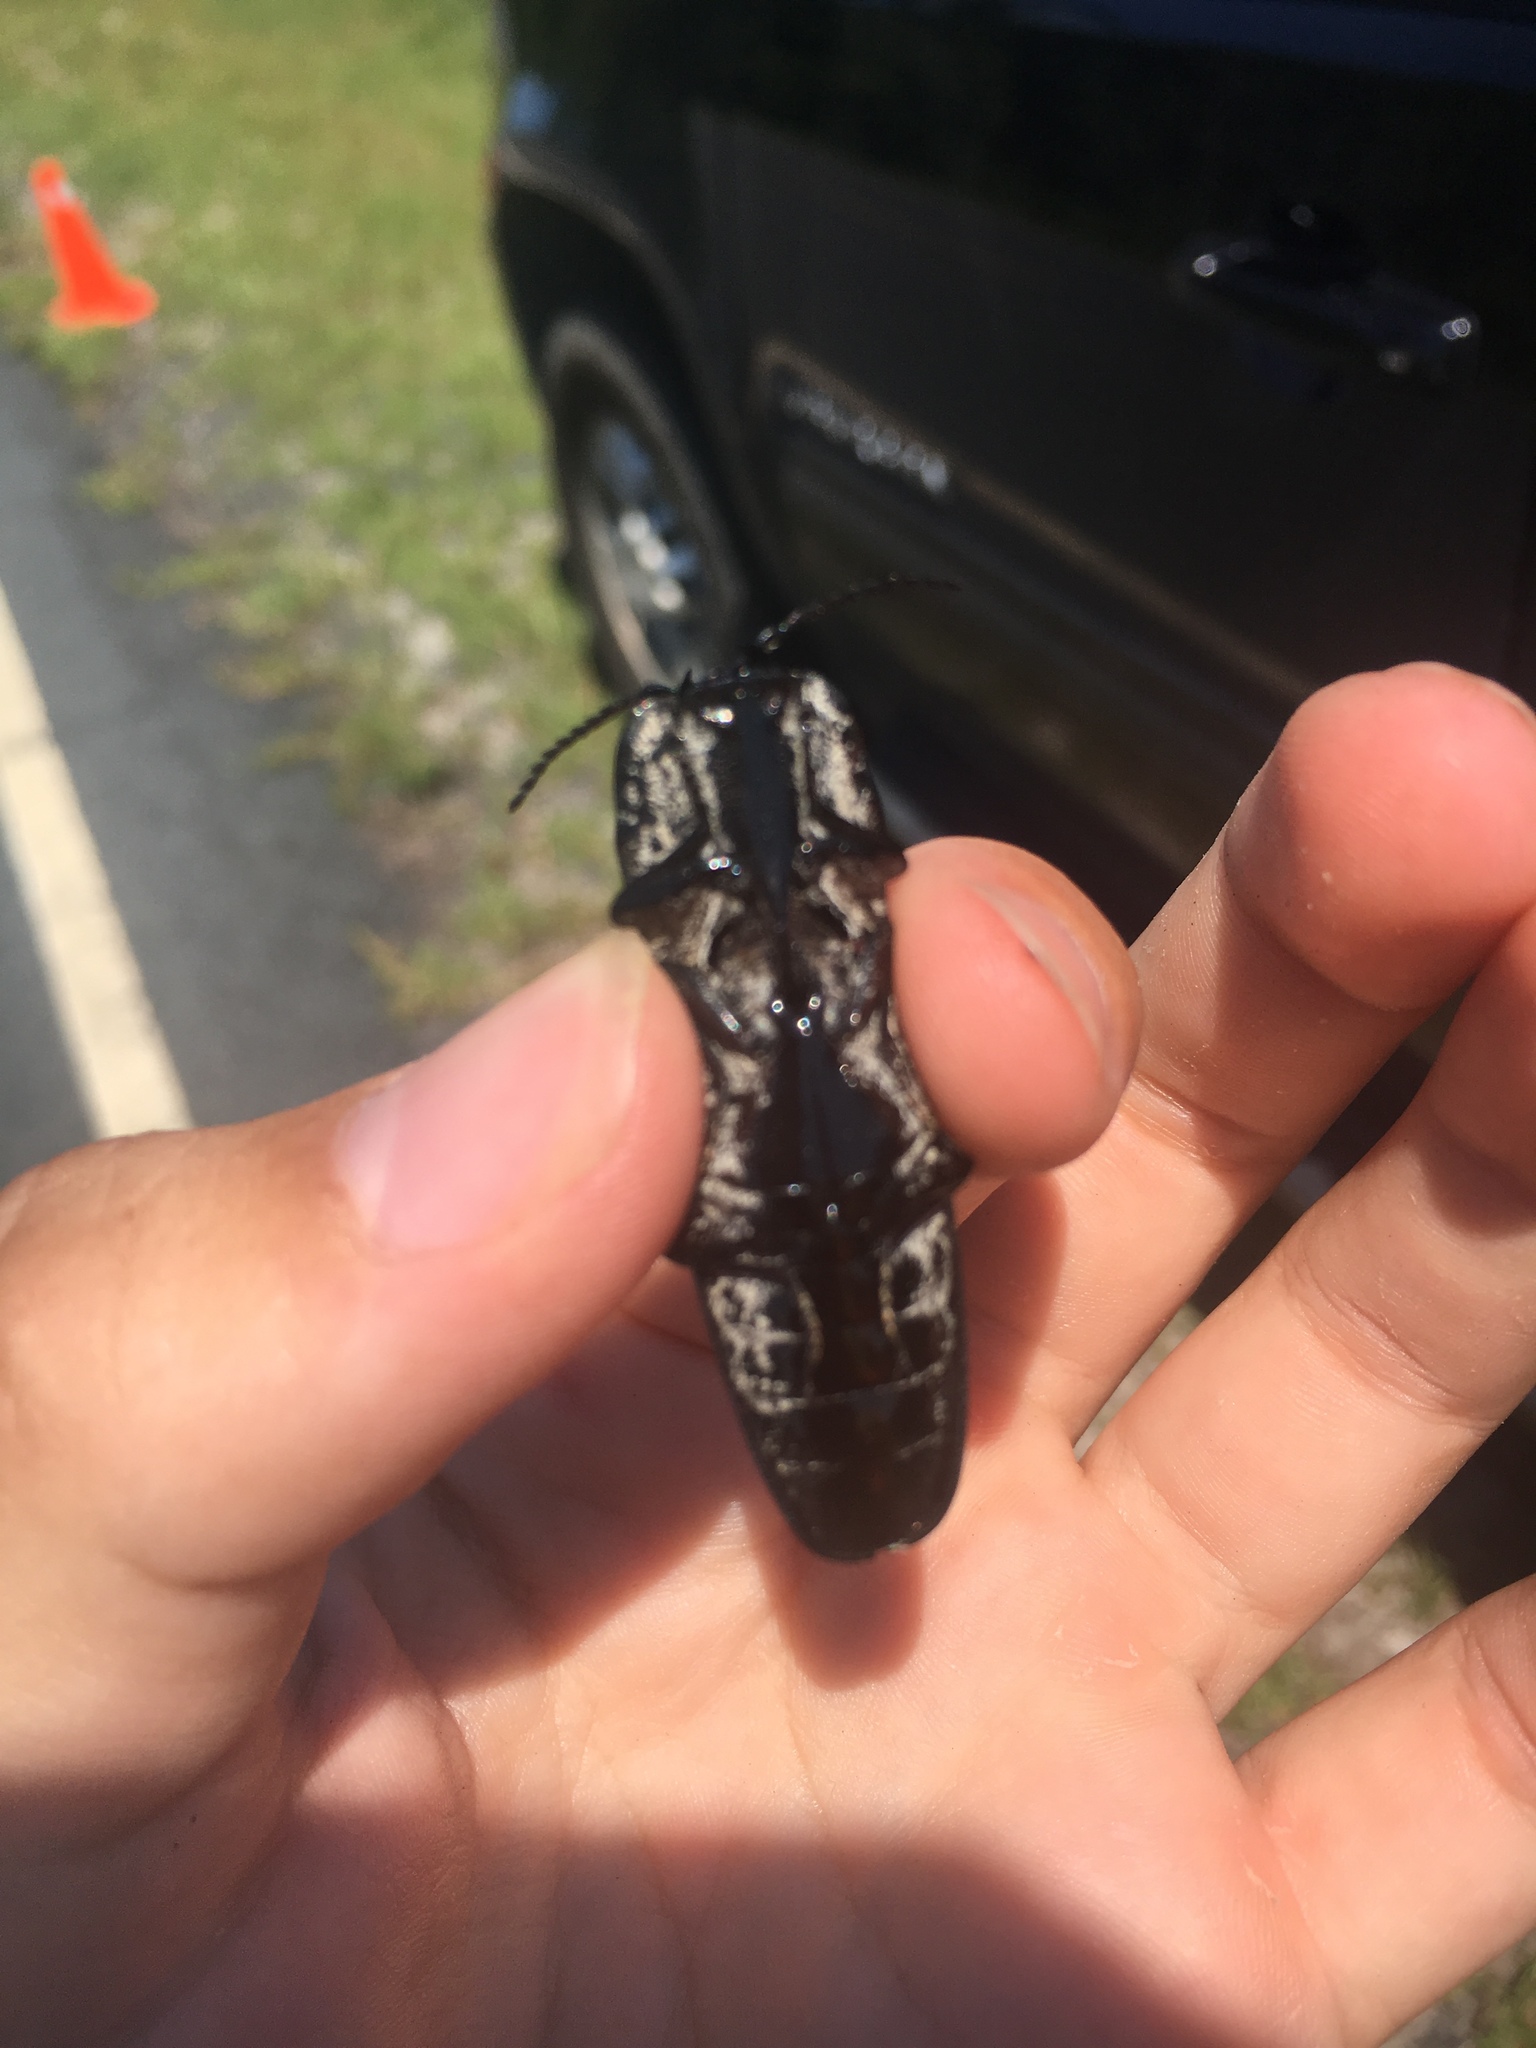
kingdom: Animalia
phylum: Arthropoda
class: Insecta
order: Coleoptera
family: Elateridae
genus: Alaus
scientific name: Alaus oculatus
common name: Eastern eyed click beetle
